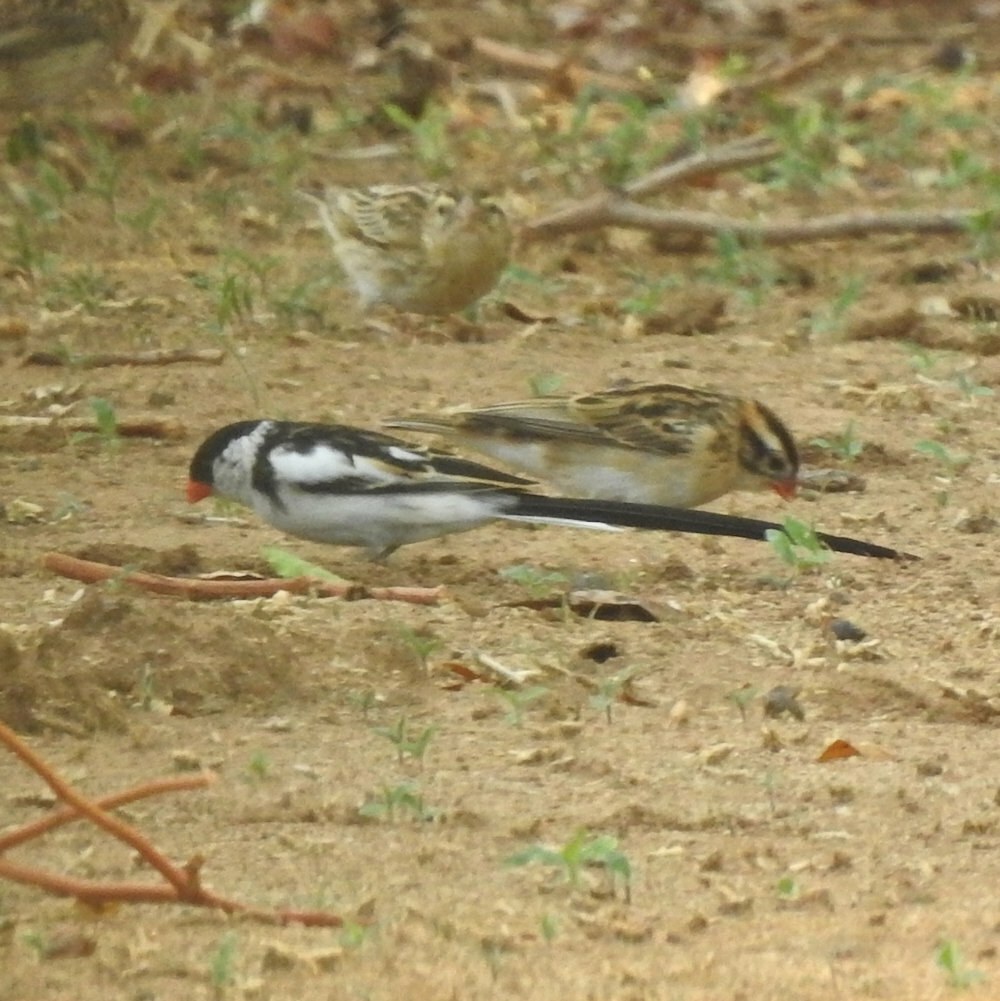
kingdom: Animalia
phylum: Chordata
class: Aves
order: Passeriformes
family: Viduidae
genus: Vidua
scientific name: Vidua macroura
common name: Pin-tailed whydah
